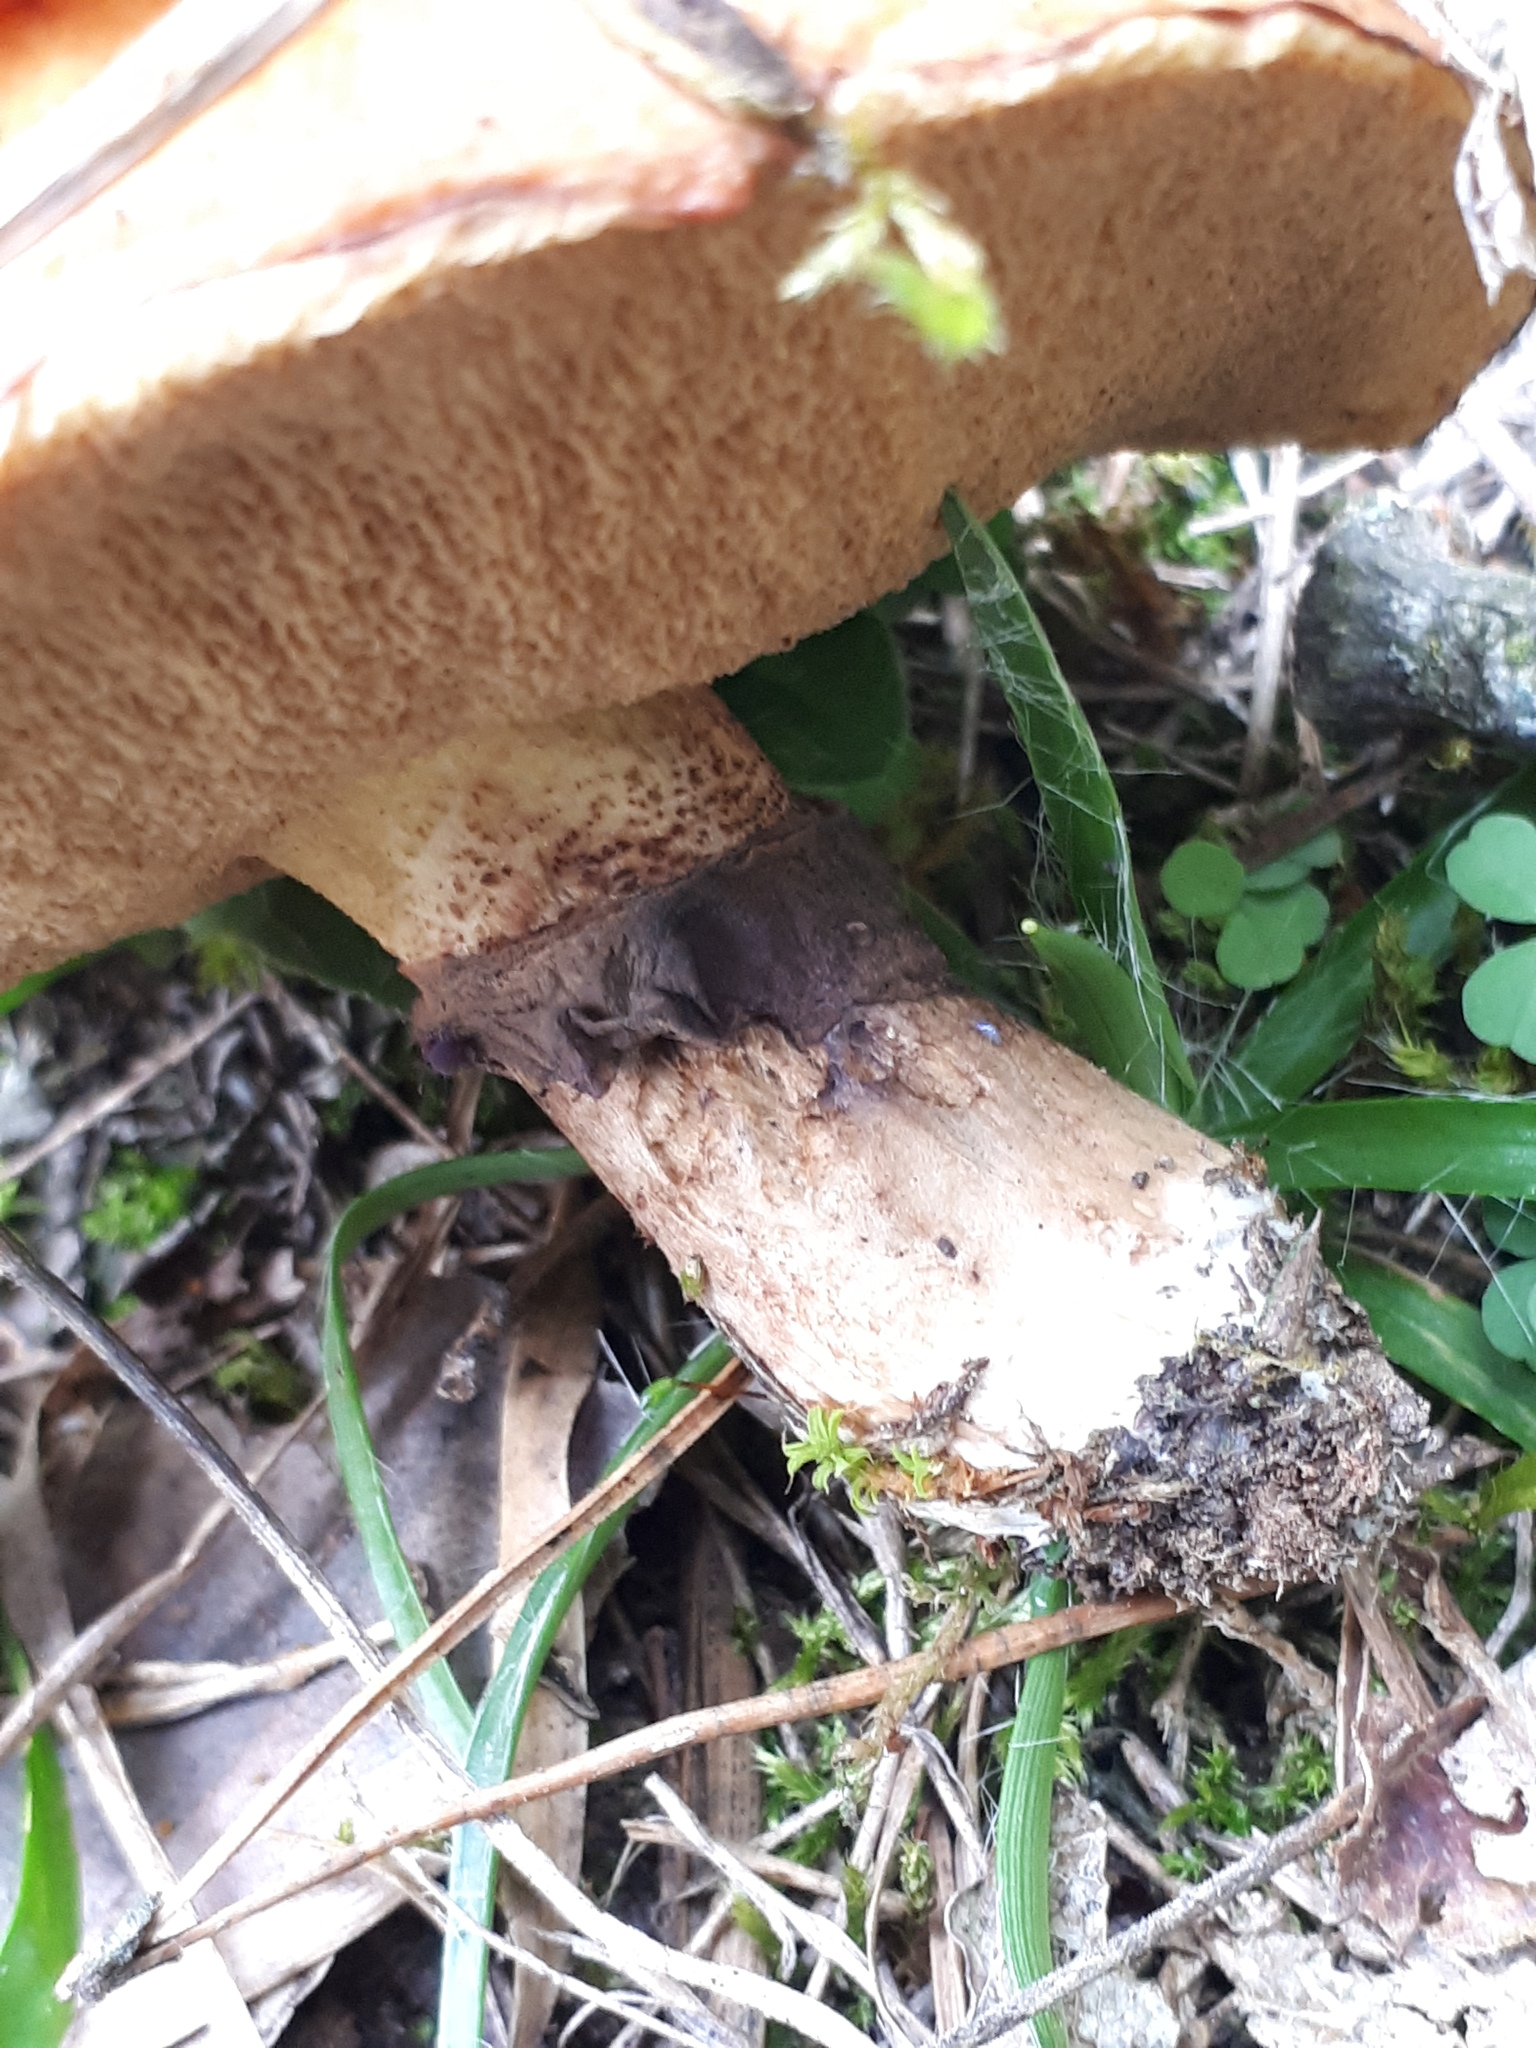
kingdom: Fungi
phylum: Basidiomycota
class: Agaricomycetes
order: Boletales
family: Suillaceae
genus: Suillus
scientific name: Suillus luteus
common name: Slippery jack
